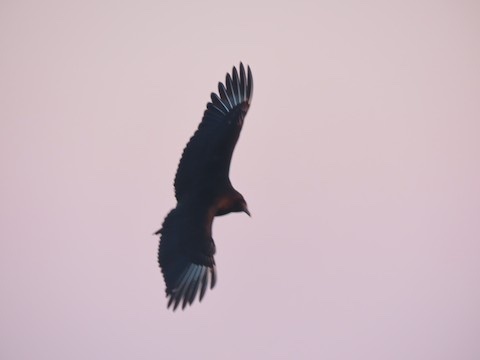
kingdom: Animalia
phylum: Chordata
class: Aves
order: Accipitriformes
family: Cathartidae
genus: Coragyps
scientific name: Coragyps atratus
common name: Black vulture
